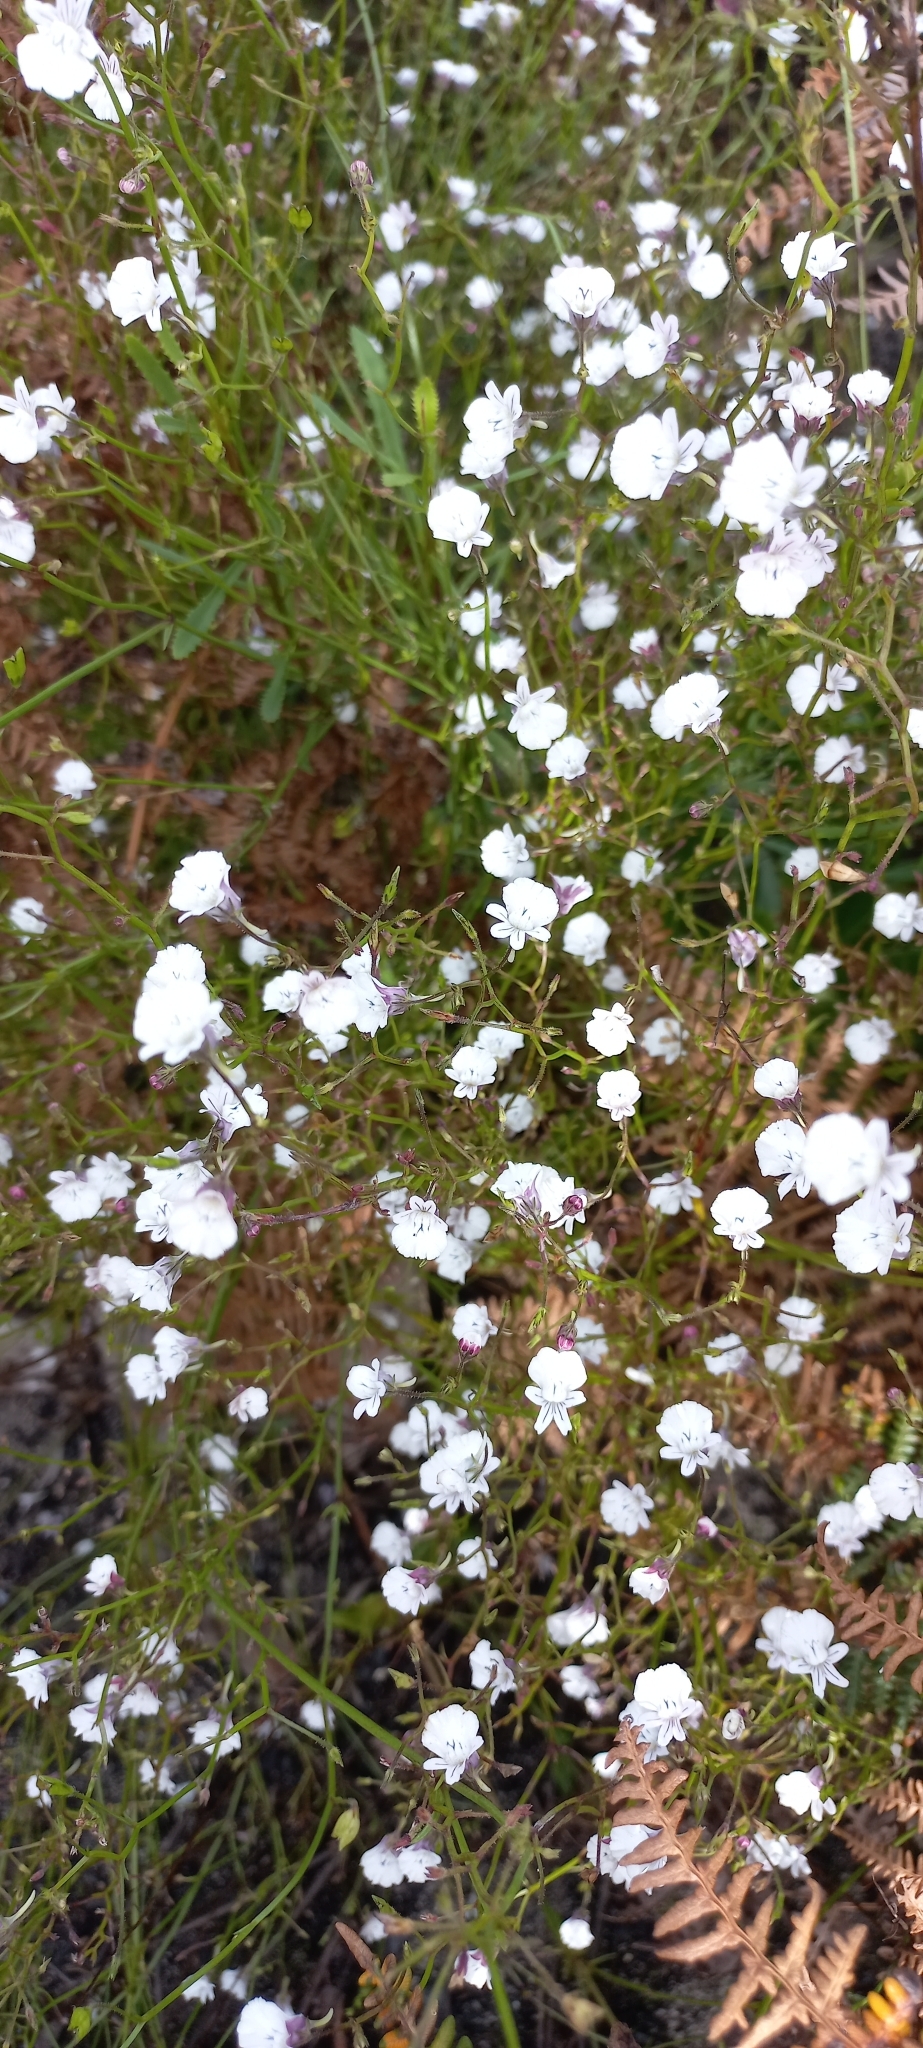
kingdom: Plantae
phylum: Tracheophyta
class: Magnoliopsida
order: Lamiales
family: Scrophulariaceae
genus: Nemesia
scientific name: Nemesia diffusa
